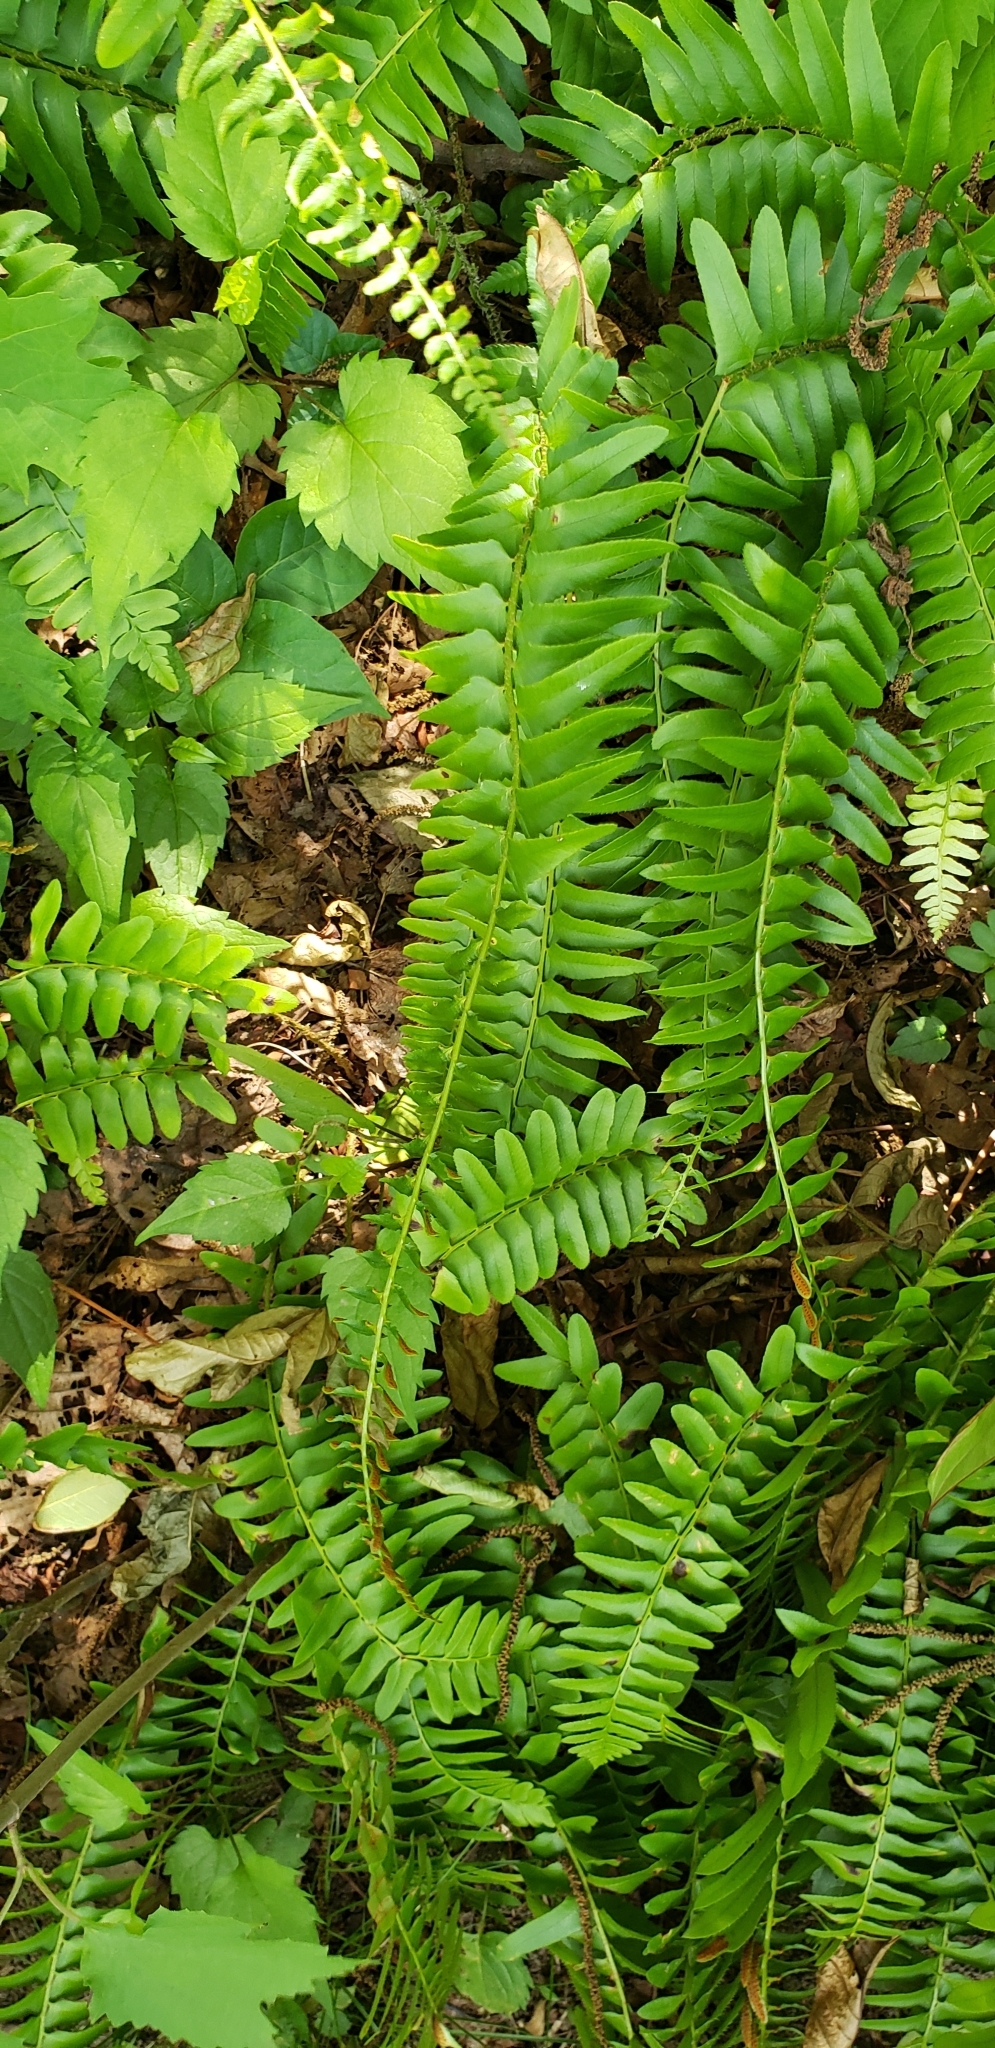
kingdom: Plantae
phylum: Tracheophyta
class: Polypodiopsida
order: Polypodiales
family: Dryopteridaceae
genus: Polystichum
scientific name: Polystichum acrostichoides
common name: Christmas fern
